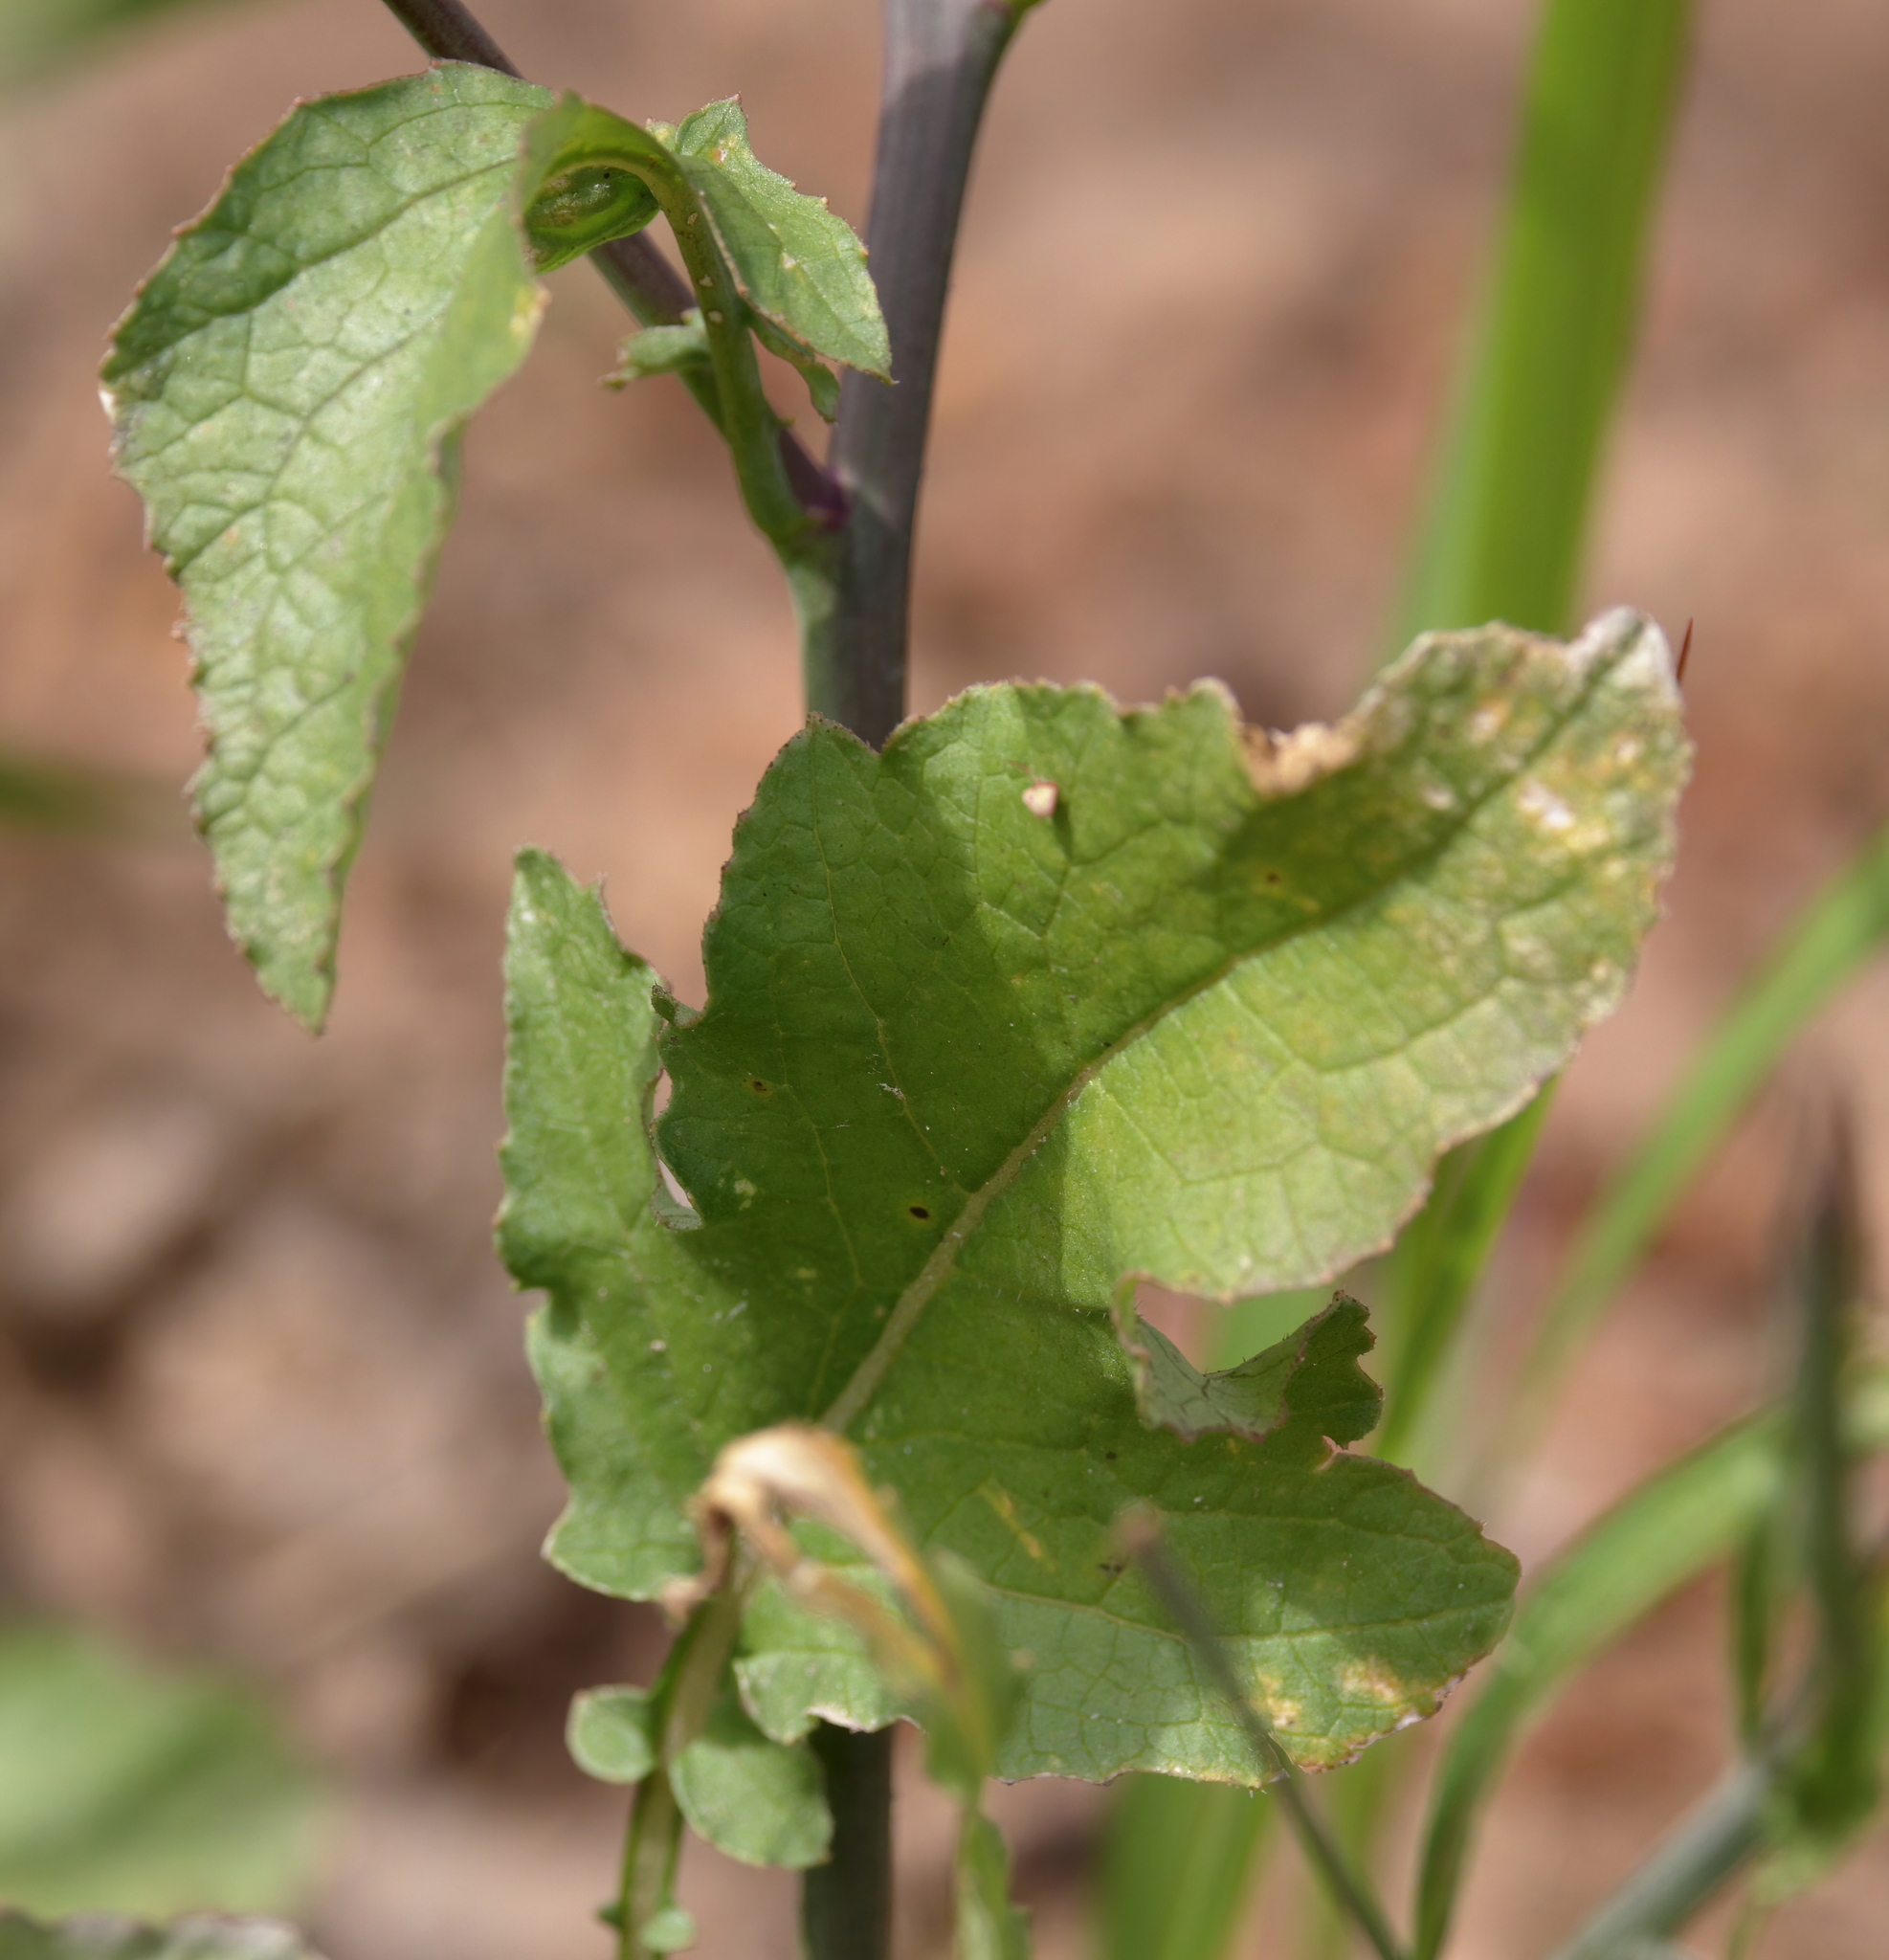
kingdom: Plantae
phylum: Tracheophyta
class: Magnoliopsida
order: Brassicales
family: Brassicaceae
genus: Raphanus
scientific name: Raphanus raphanistrum
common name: Wild radish
